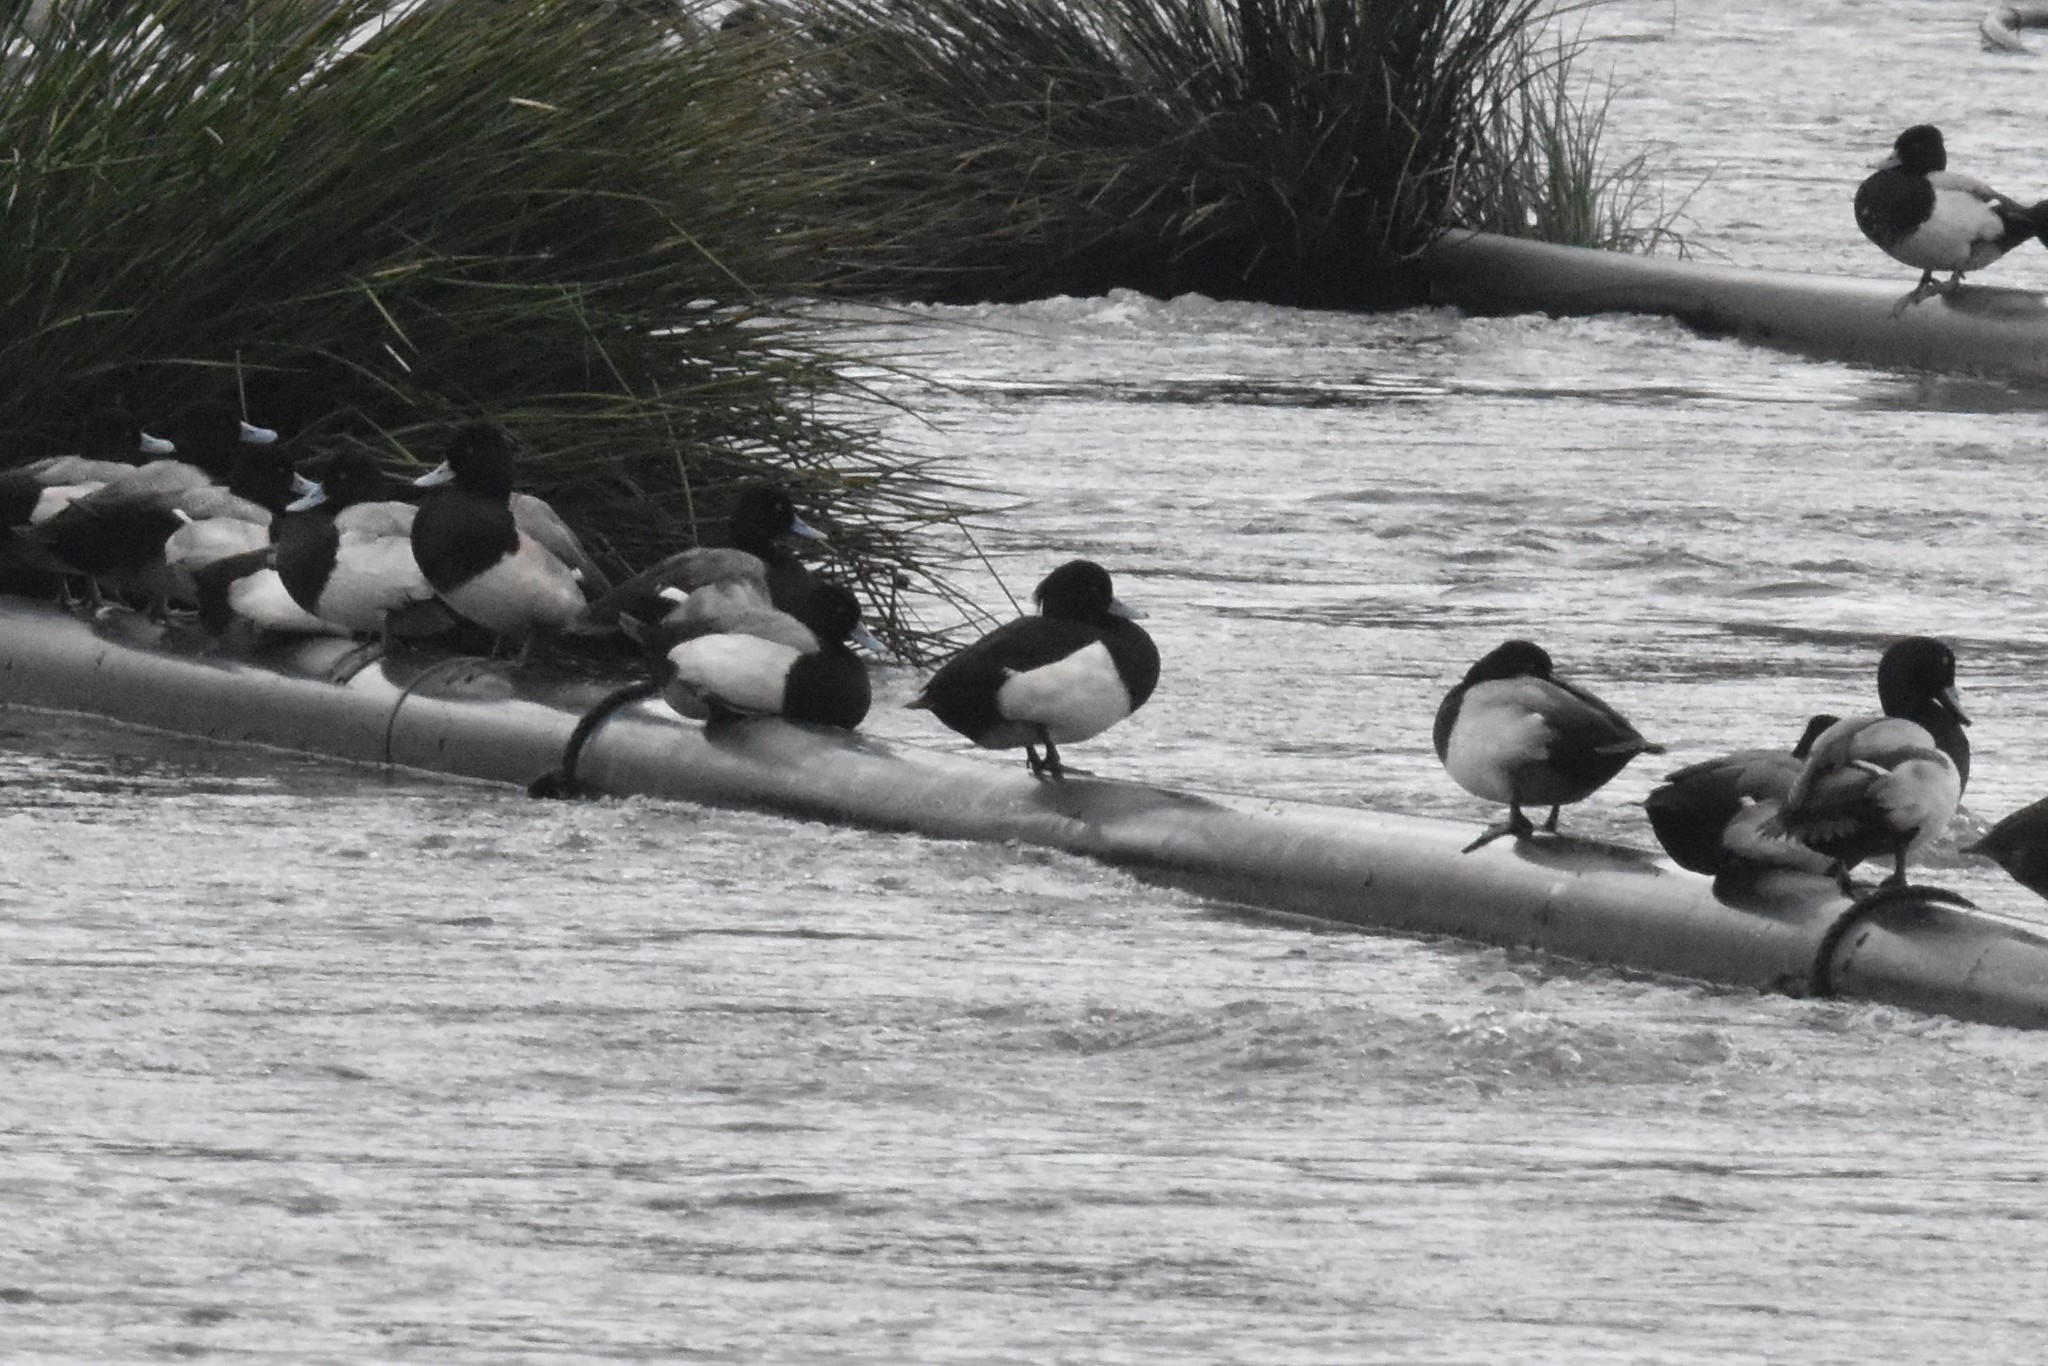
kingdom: Animalia
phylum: Chordata
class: Aves
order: Anseriformes
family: Anatidae
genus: Aythya
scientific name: Aythya fuligula
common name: Tufted duck
